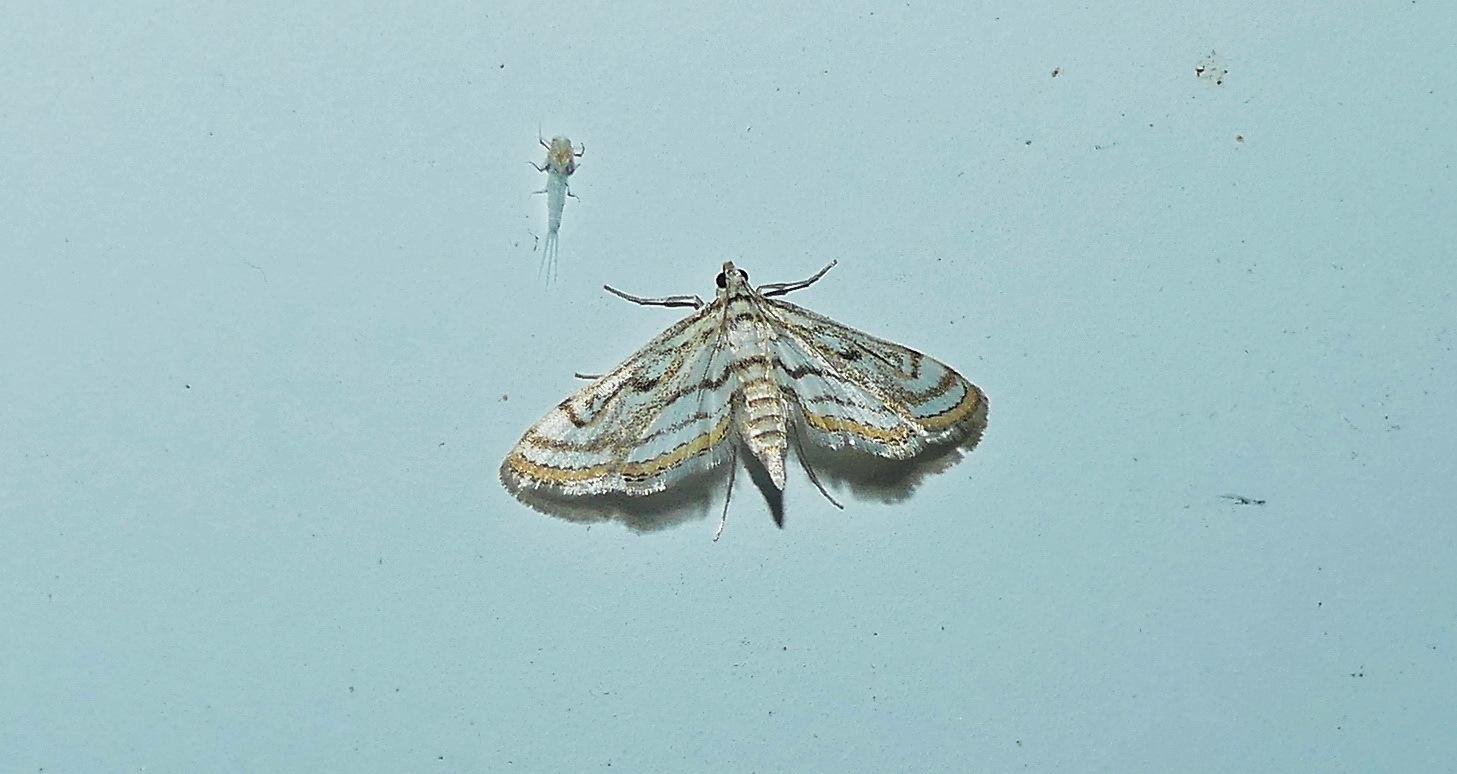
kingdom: Animalia
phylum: Arthropoda
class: Insecta
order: Lepidoptera
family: Crambidae
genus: Parapoynx
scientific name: Parapoynx badiusalis
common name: Chestnut-marked pondweed moth
